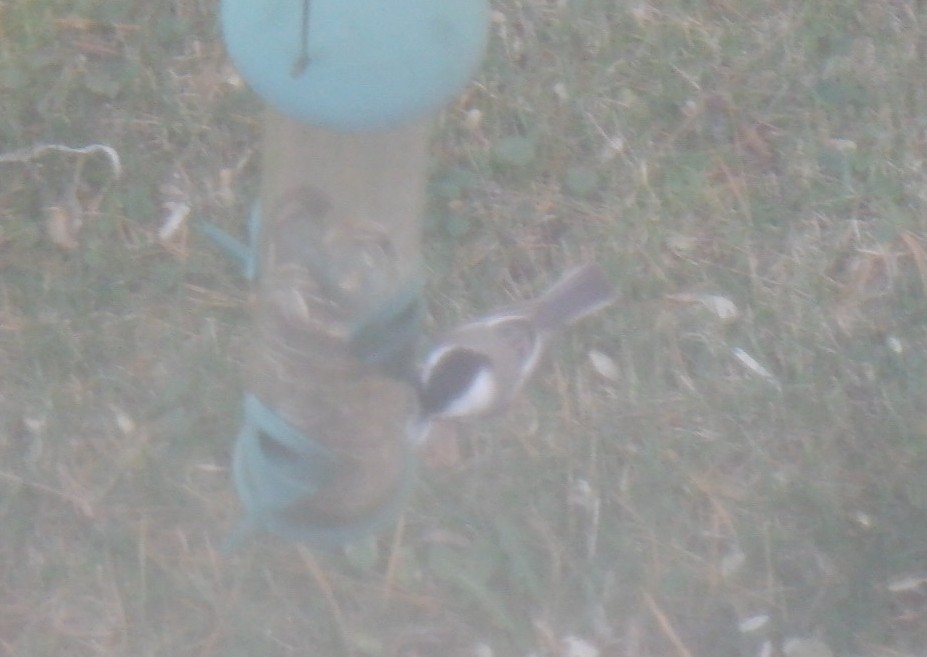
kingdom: Animalia
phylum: Chordata
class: Aves
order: Passeriformes
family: Paridae
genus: Poecile
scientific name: Poecile atricapillus
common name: Black-capped chickadee
